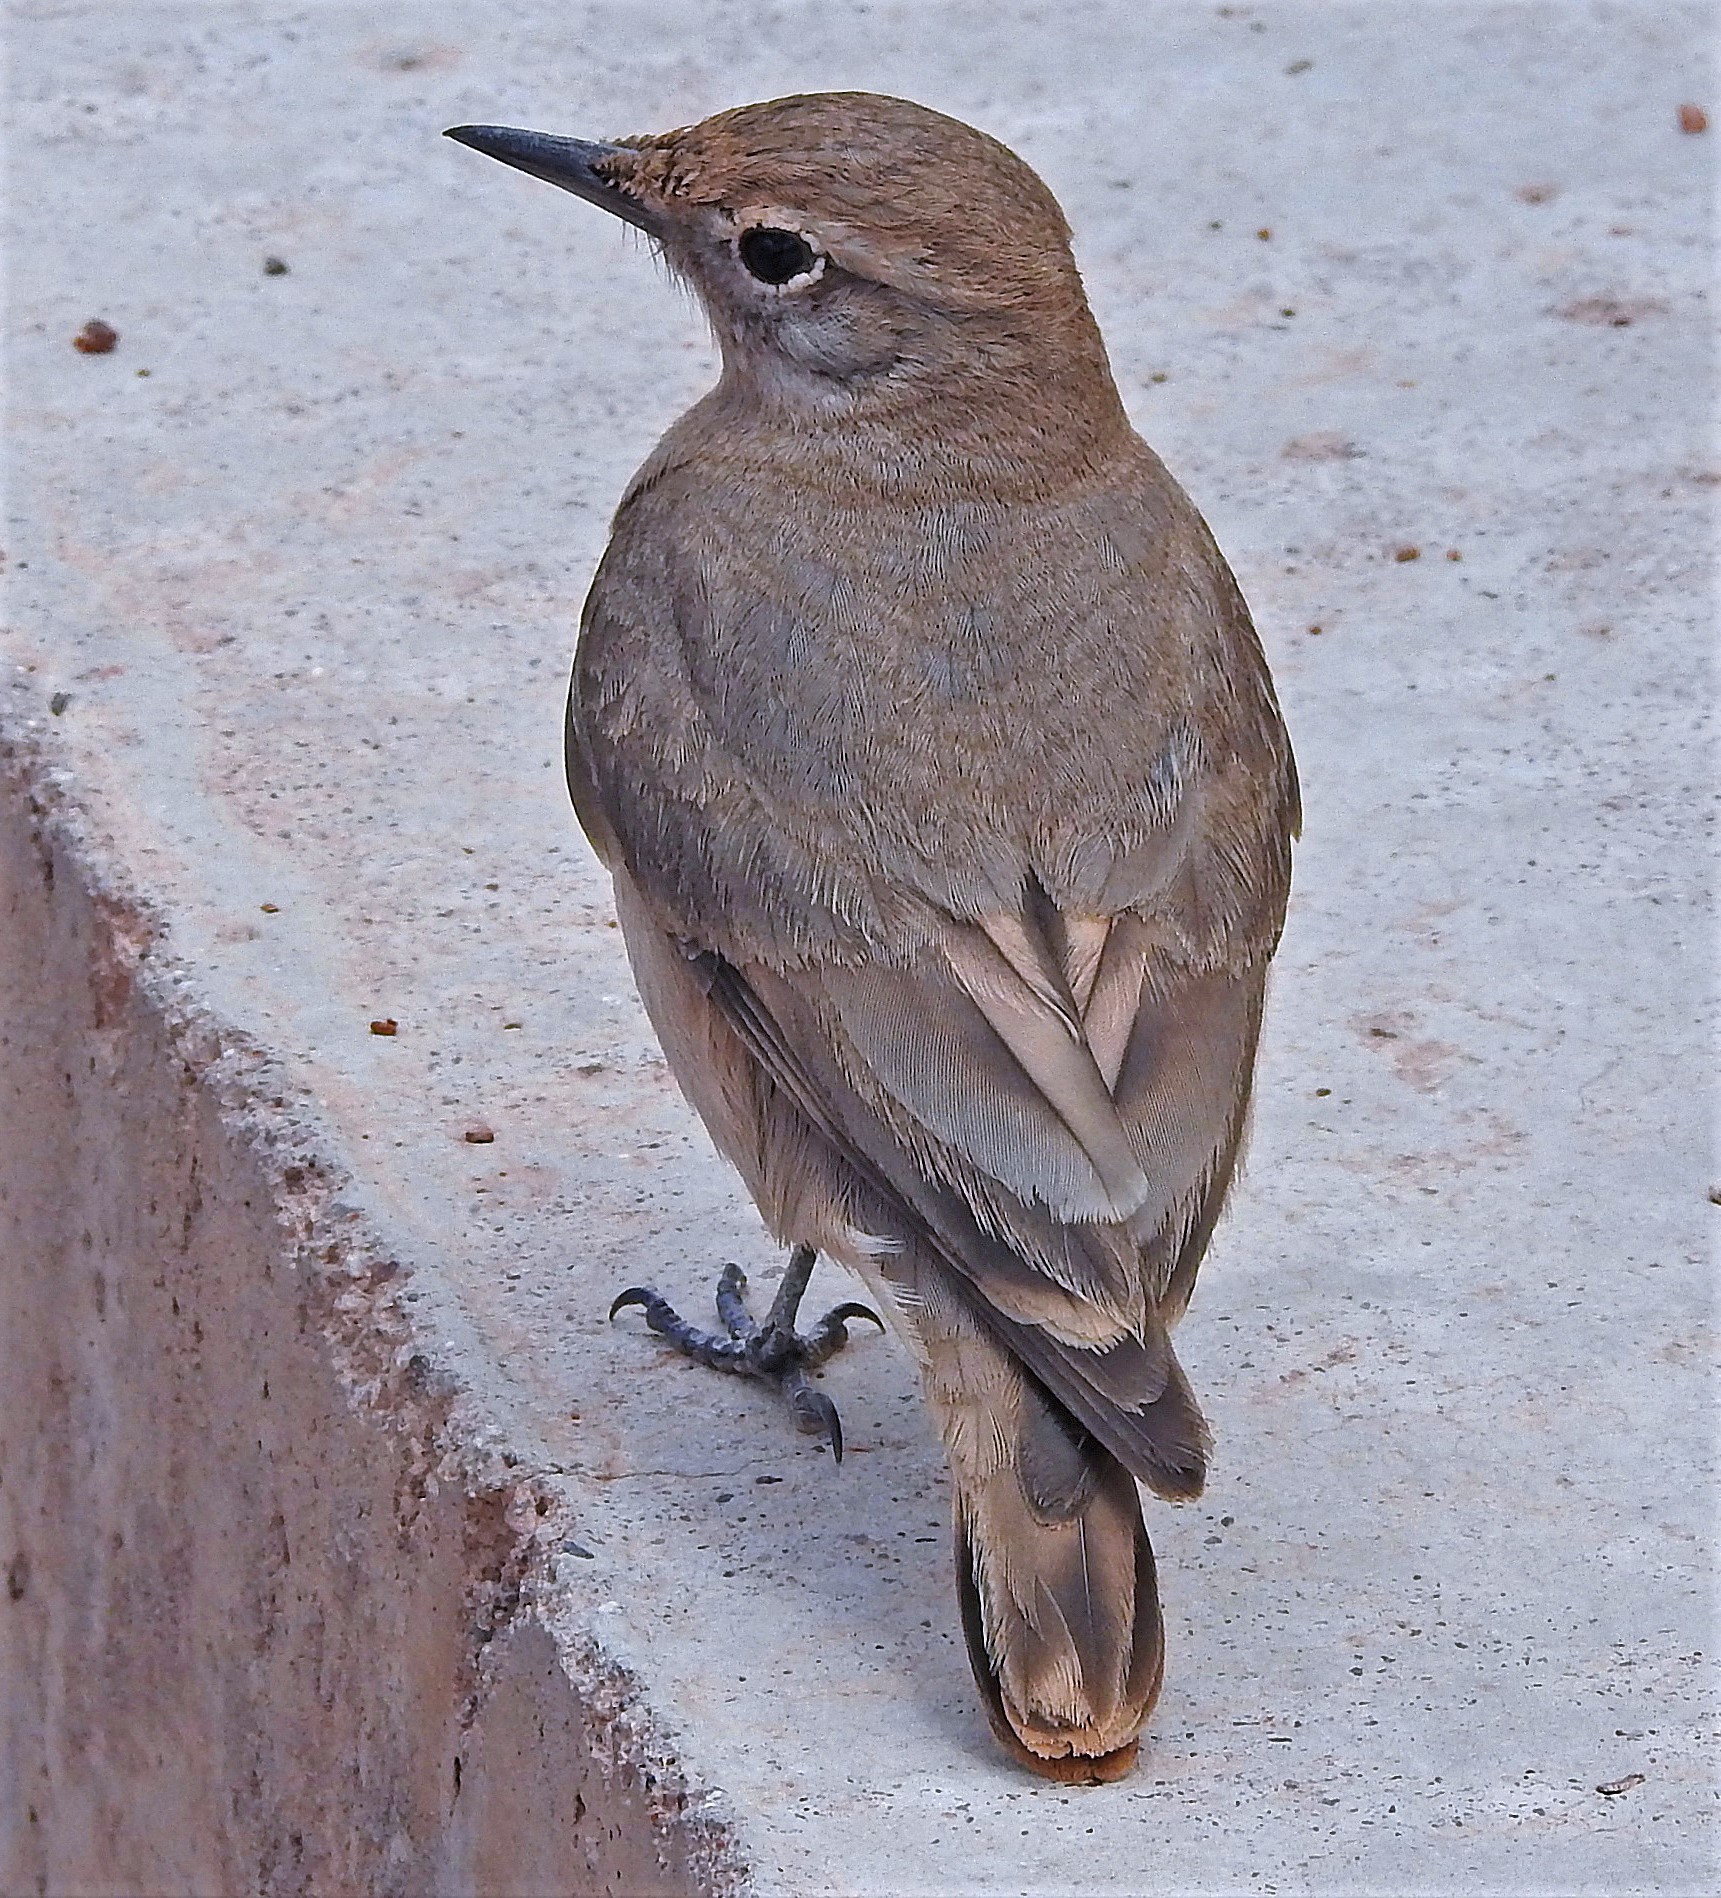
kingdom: Animalia
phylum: Chordata
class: Aves
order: Passeriformes
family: Furnariidae
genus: Geositta
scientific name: Geositta rufipennis
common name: Rufous-banded miner
